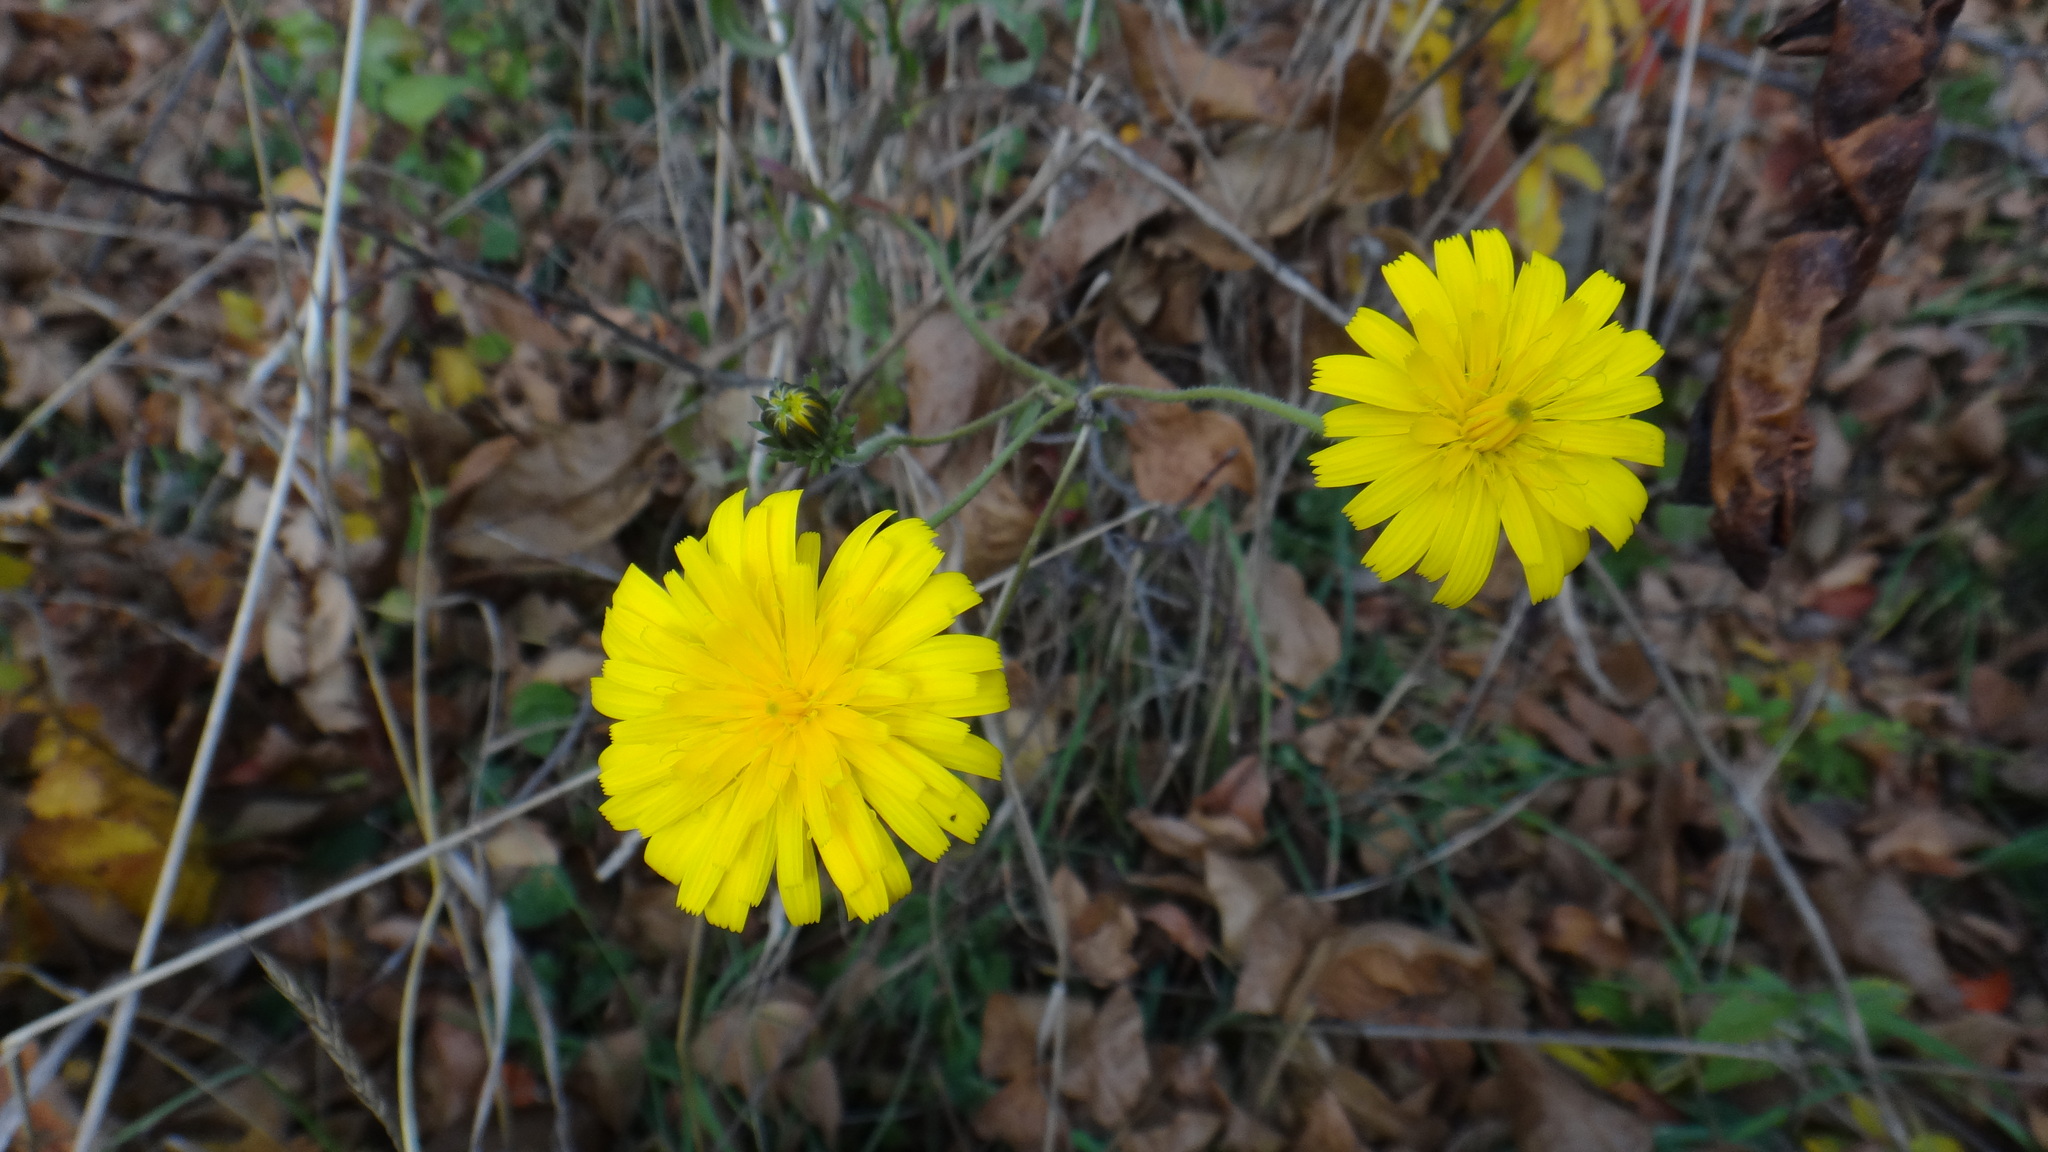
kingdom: Plantae
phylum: Tracheophyta
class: Magnoliopsida
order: Asterales
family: Asteraceae
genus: Picris
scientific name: Picris hieracioides
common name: Hawkweed oxtongue
